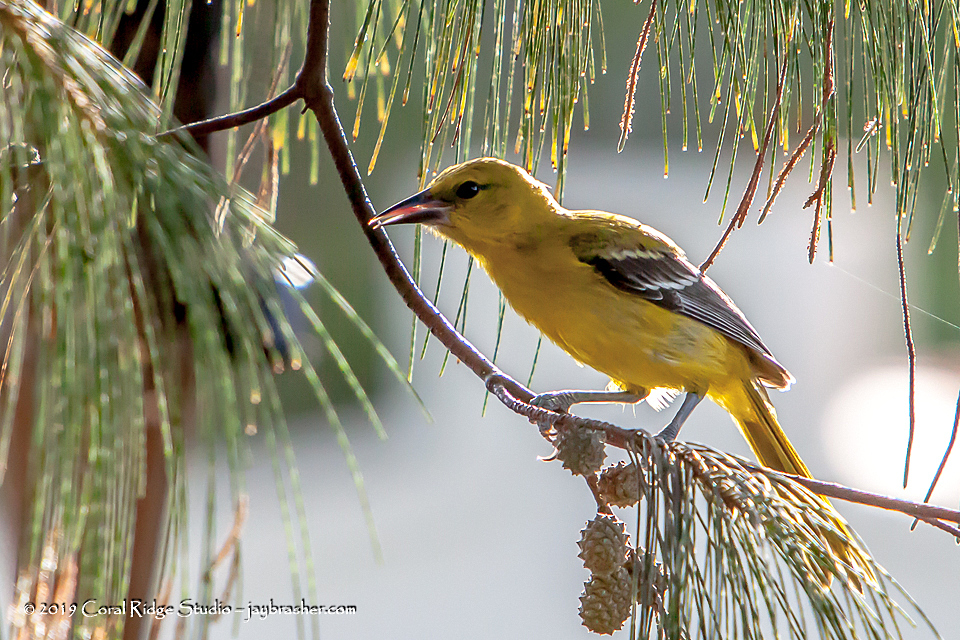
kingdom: Animalia
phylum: Chordata
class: Aves
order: Passeriformes
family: Icteridae
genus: Icterus
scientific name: Icterus nigrogularis
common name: Yellow oriole
